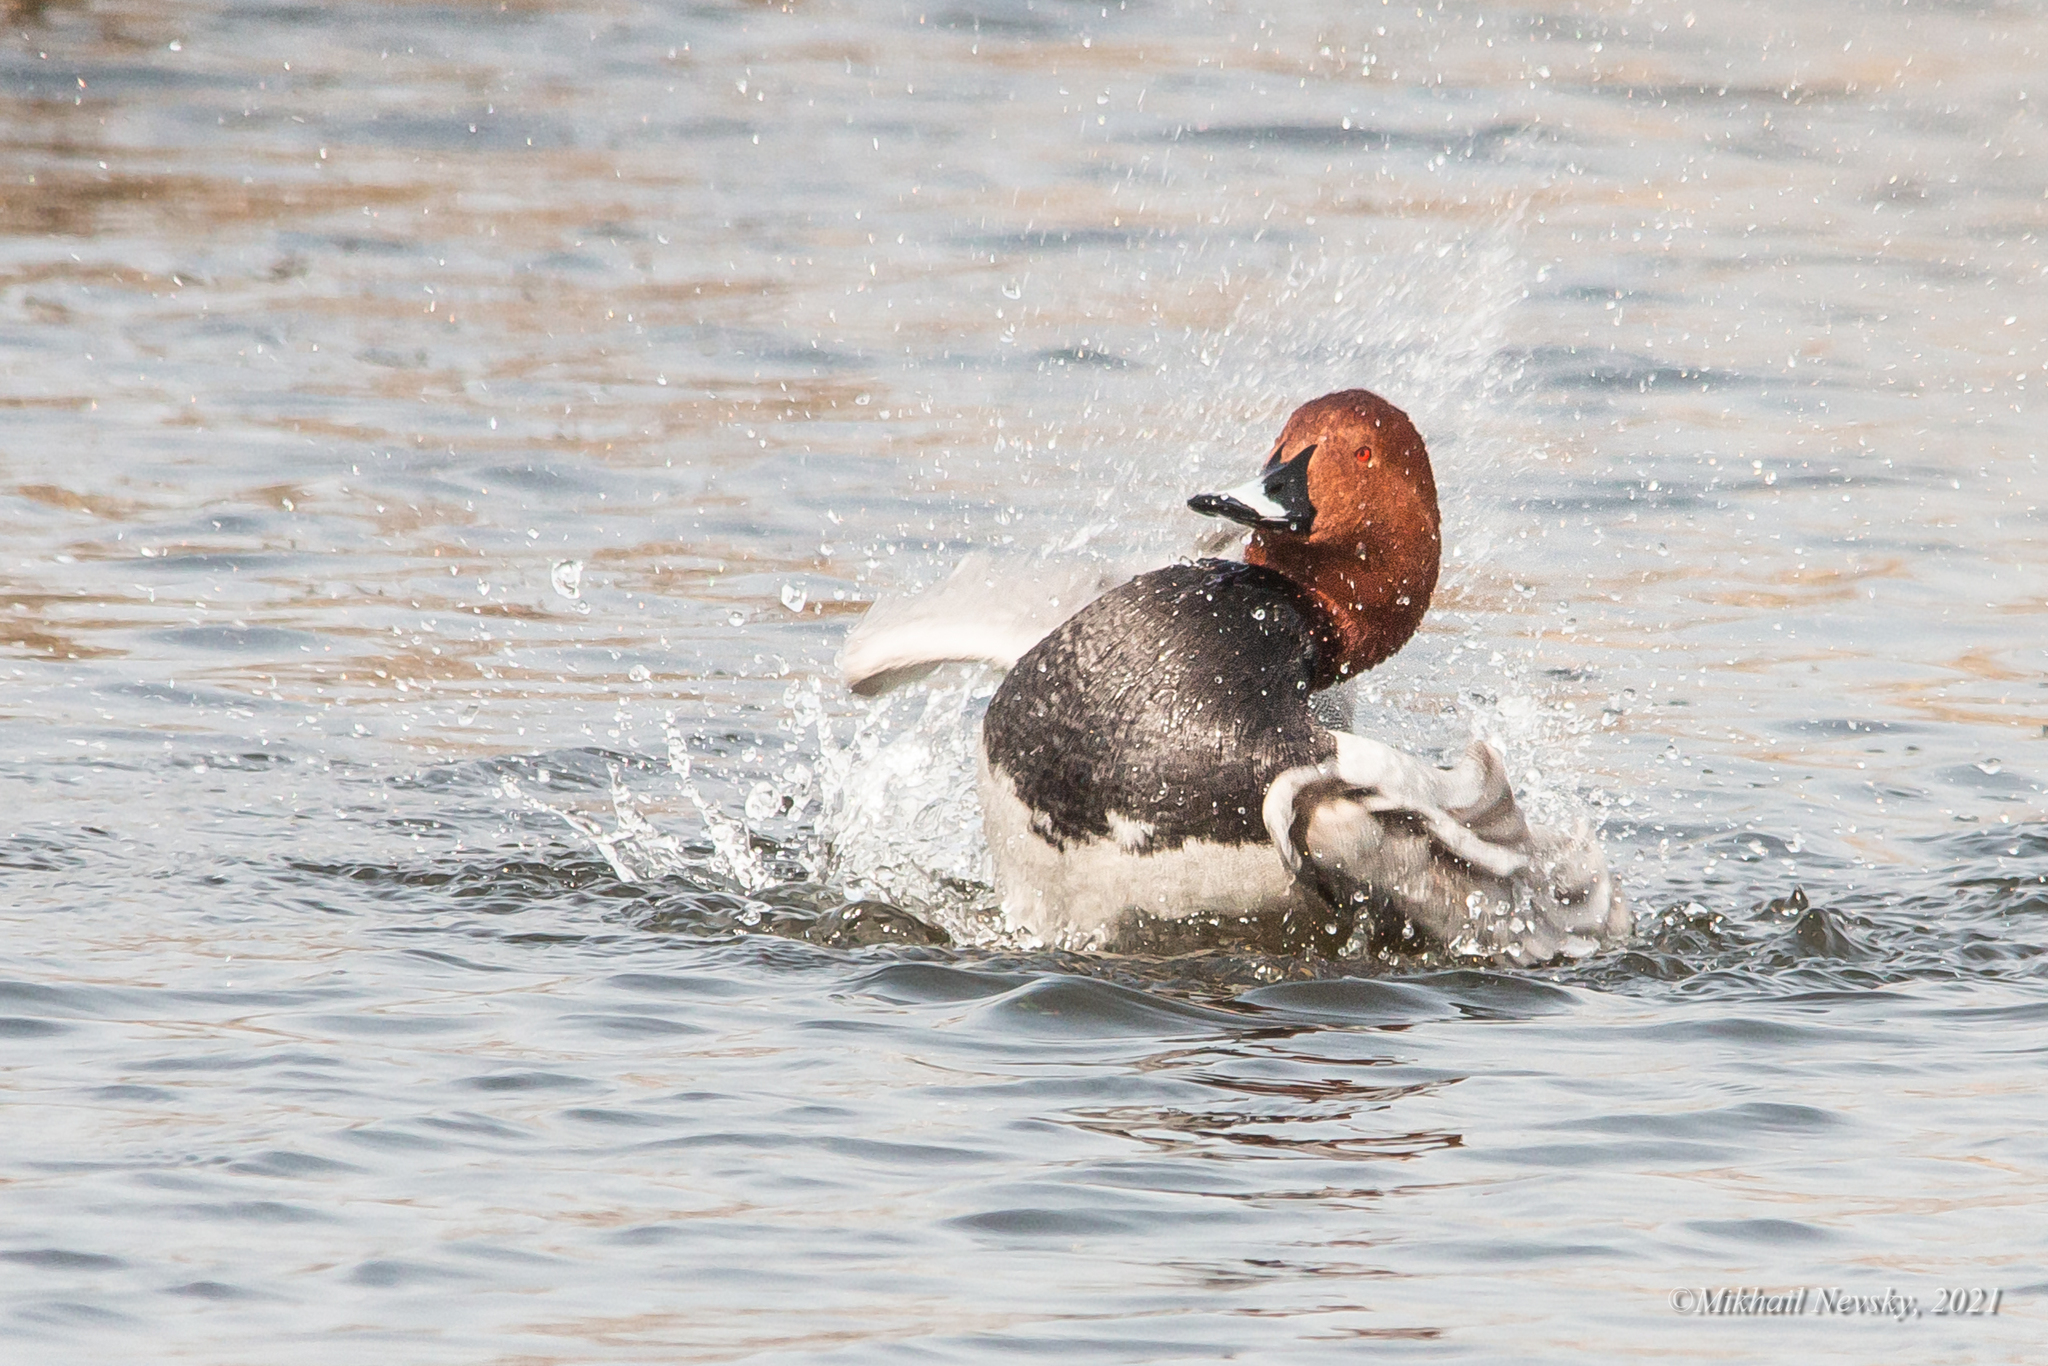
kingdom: Animalia
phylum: Chordata
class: Aves
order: Anseriformes
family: Anatidae
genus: Aythya
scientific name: Aythya ferina
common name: Common pochard
